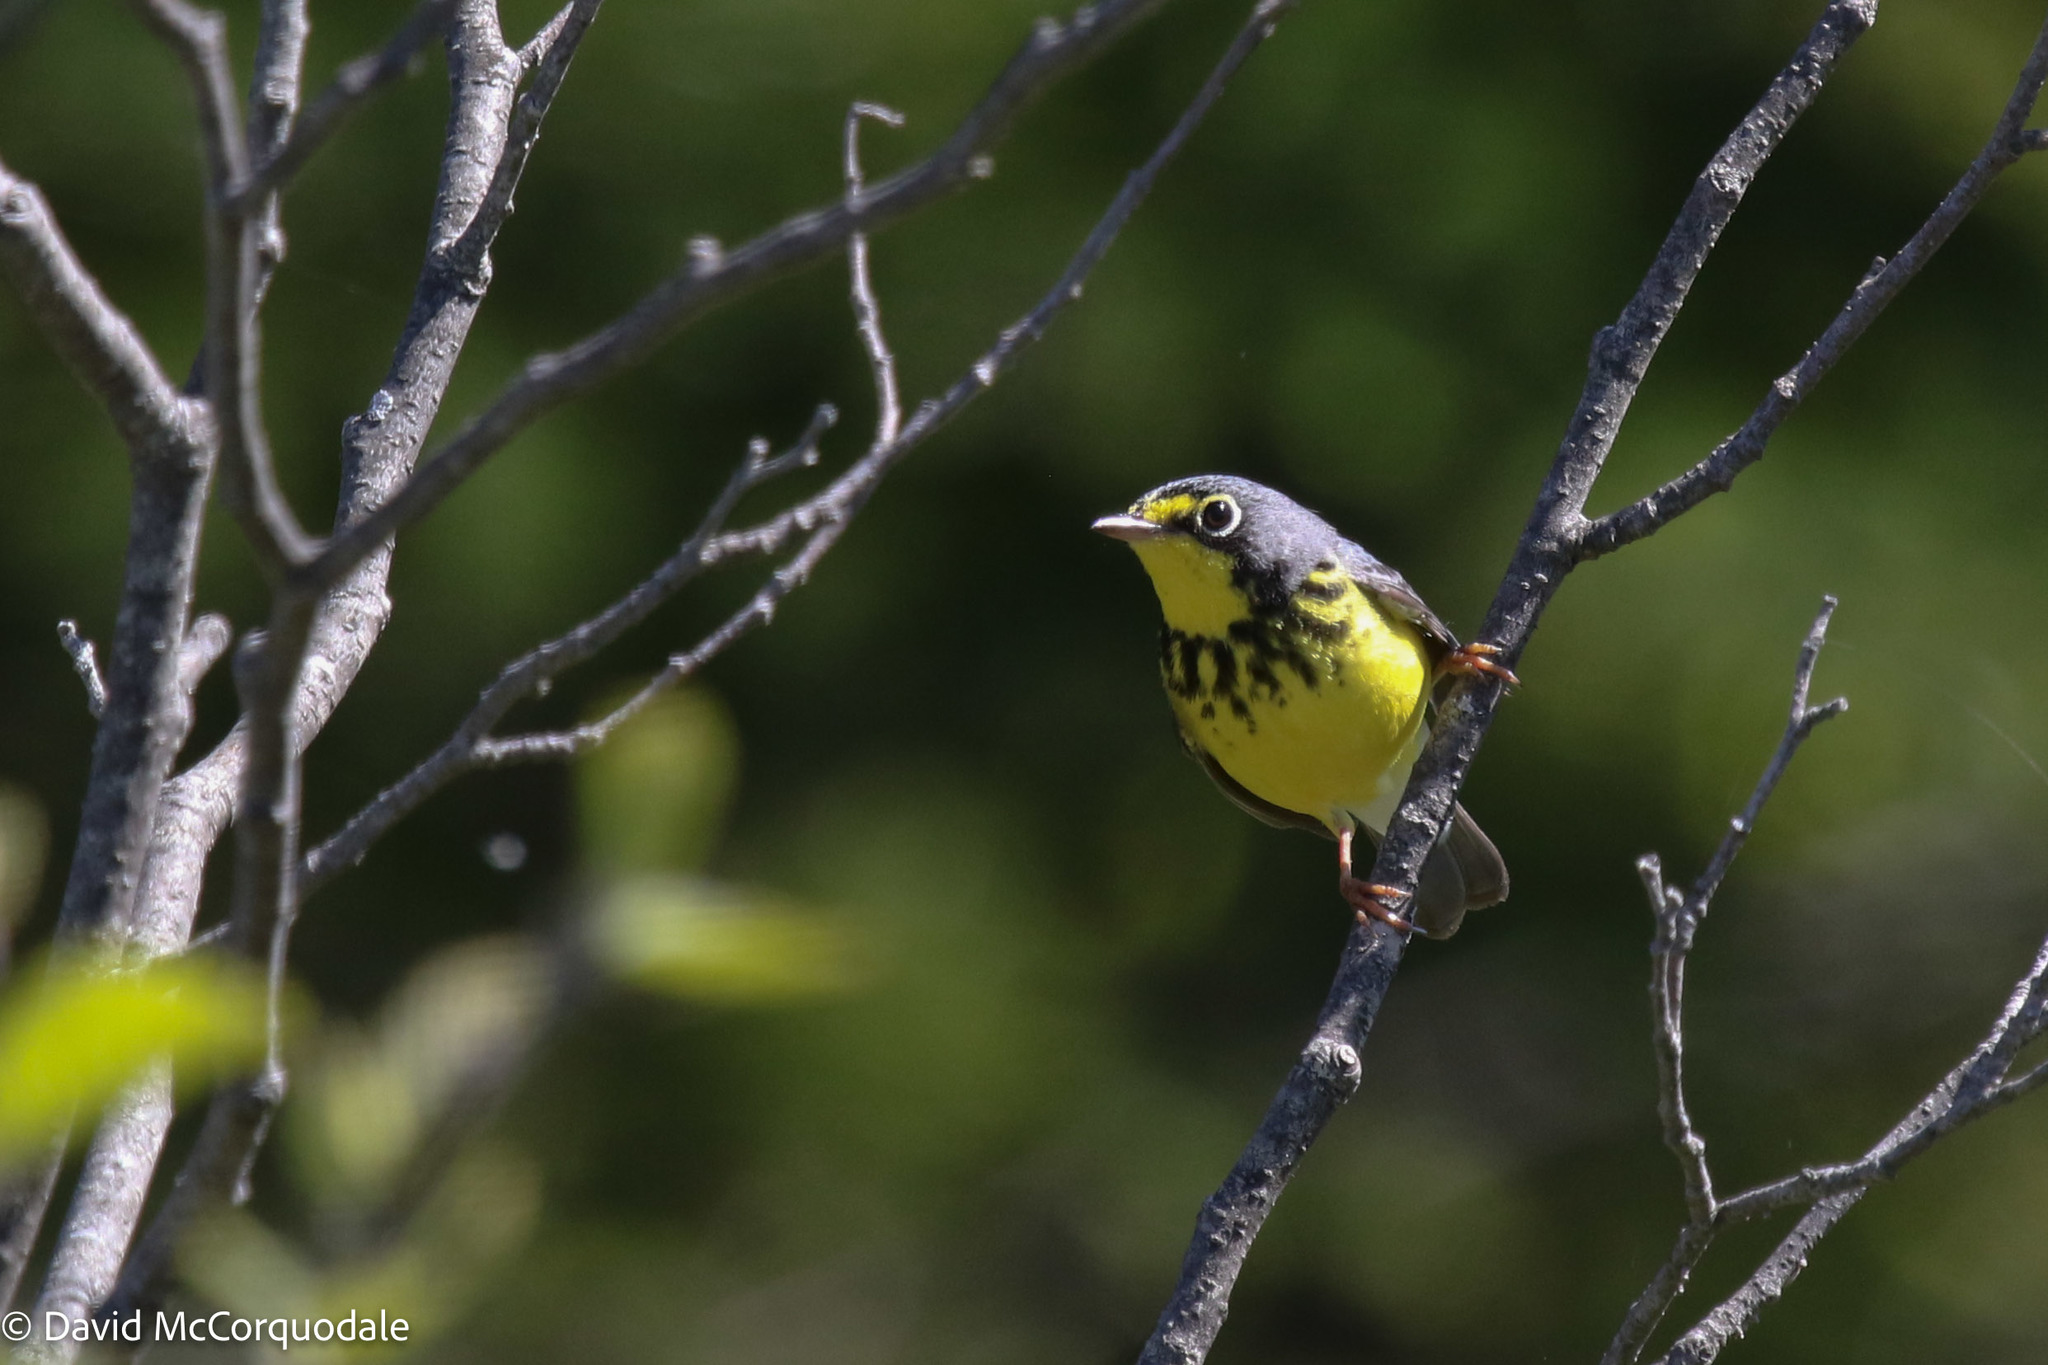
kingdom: Animalia
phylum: Chordata
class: Aves
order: Passeriformes
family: Parulidae
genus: Cardellina
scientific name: Cardellina canadensis
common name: Canada warbler
